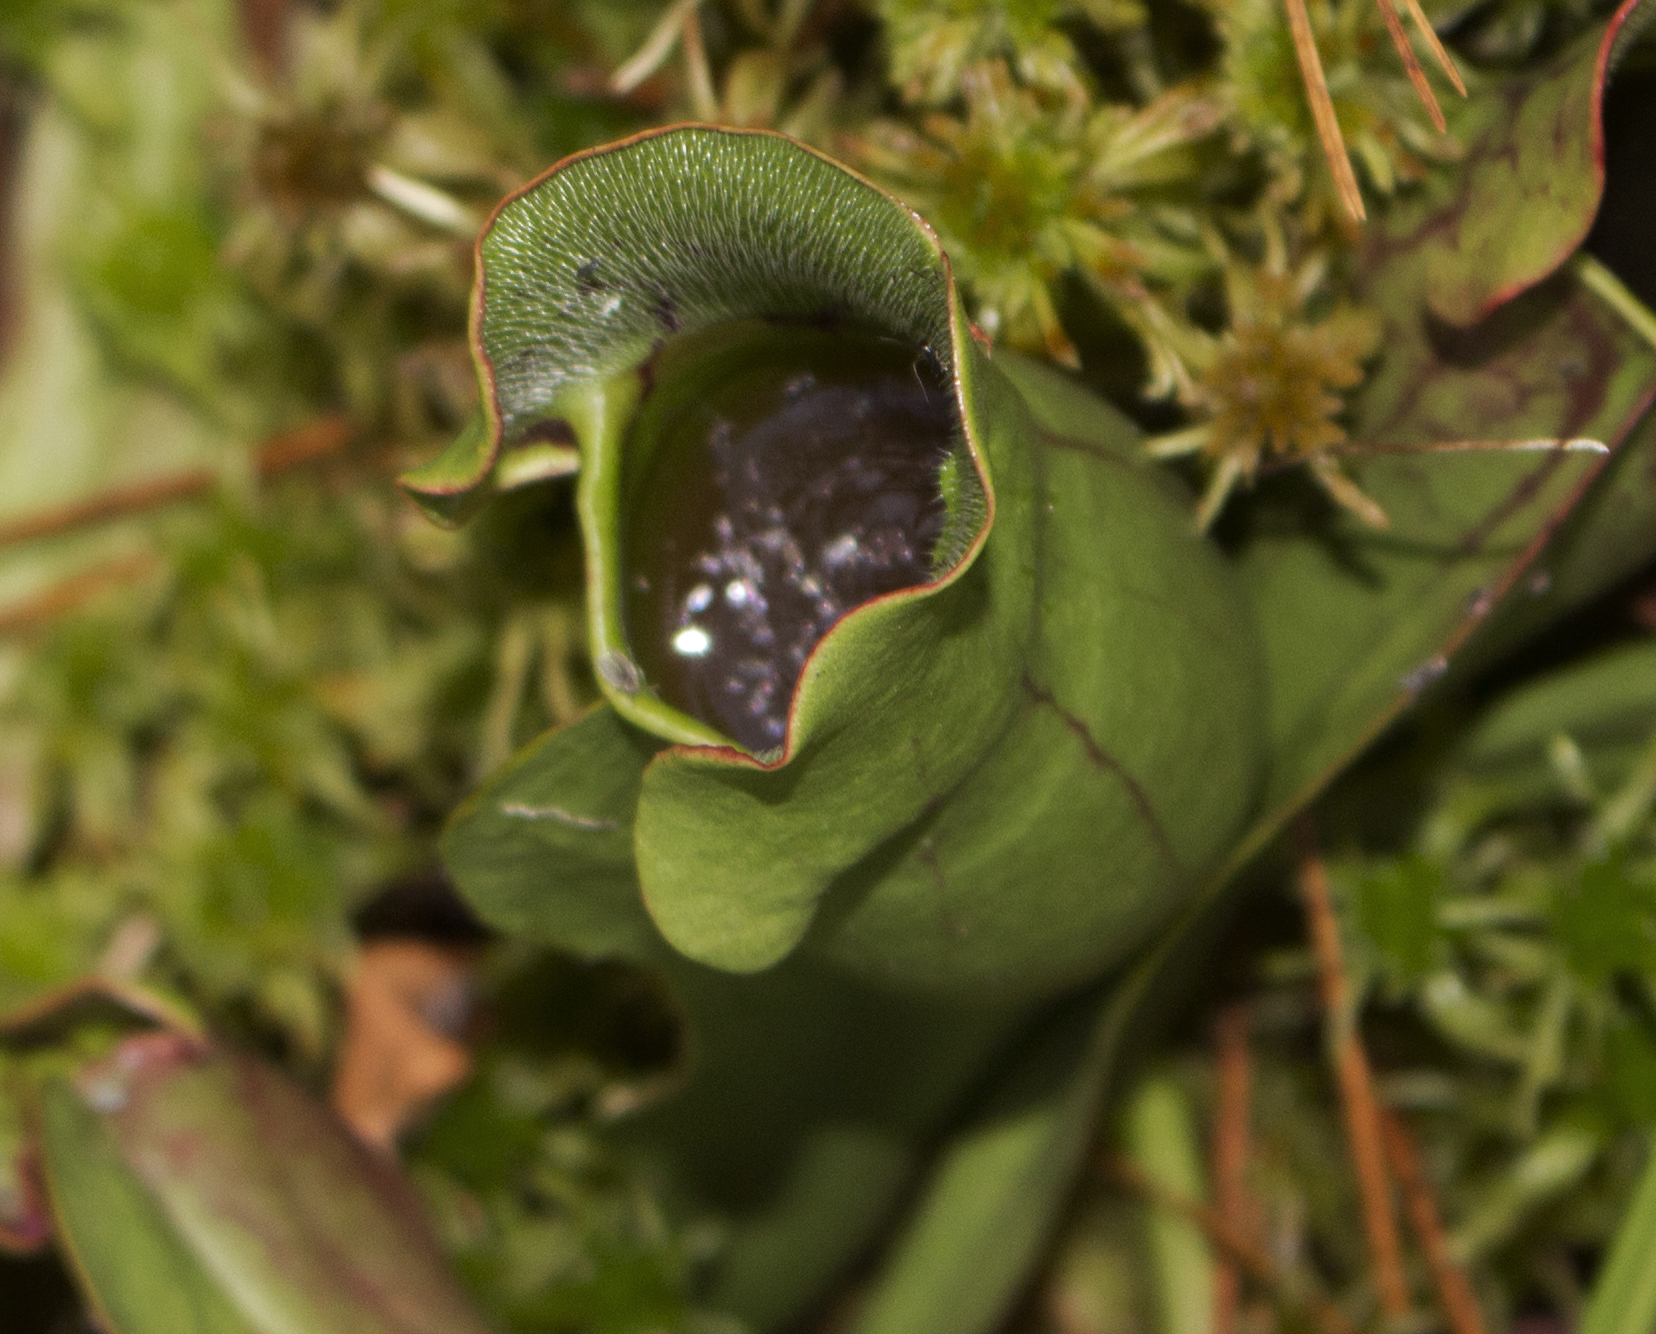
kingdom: Plantae
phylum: Tracheophyta
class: Magnoliopsida
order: Ericales
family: Sarraceniaceae
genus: Sarracenia
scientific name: Sarracenia purpurea
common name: Pitcherplant
